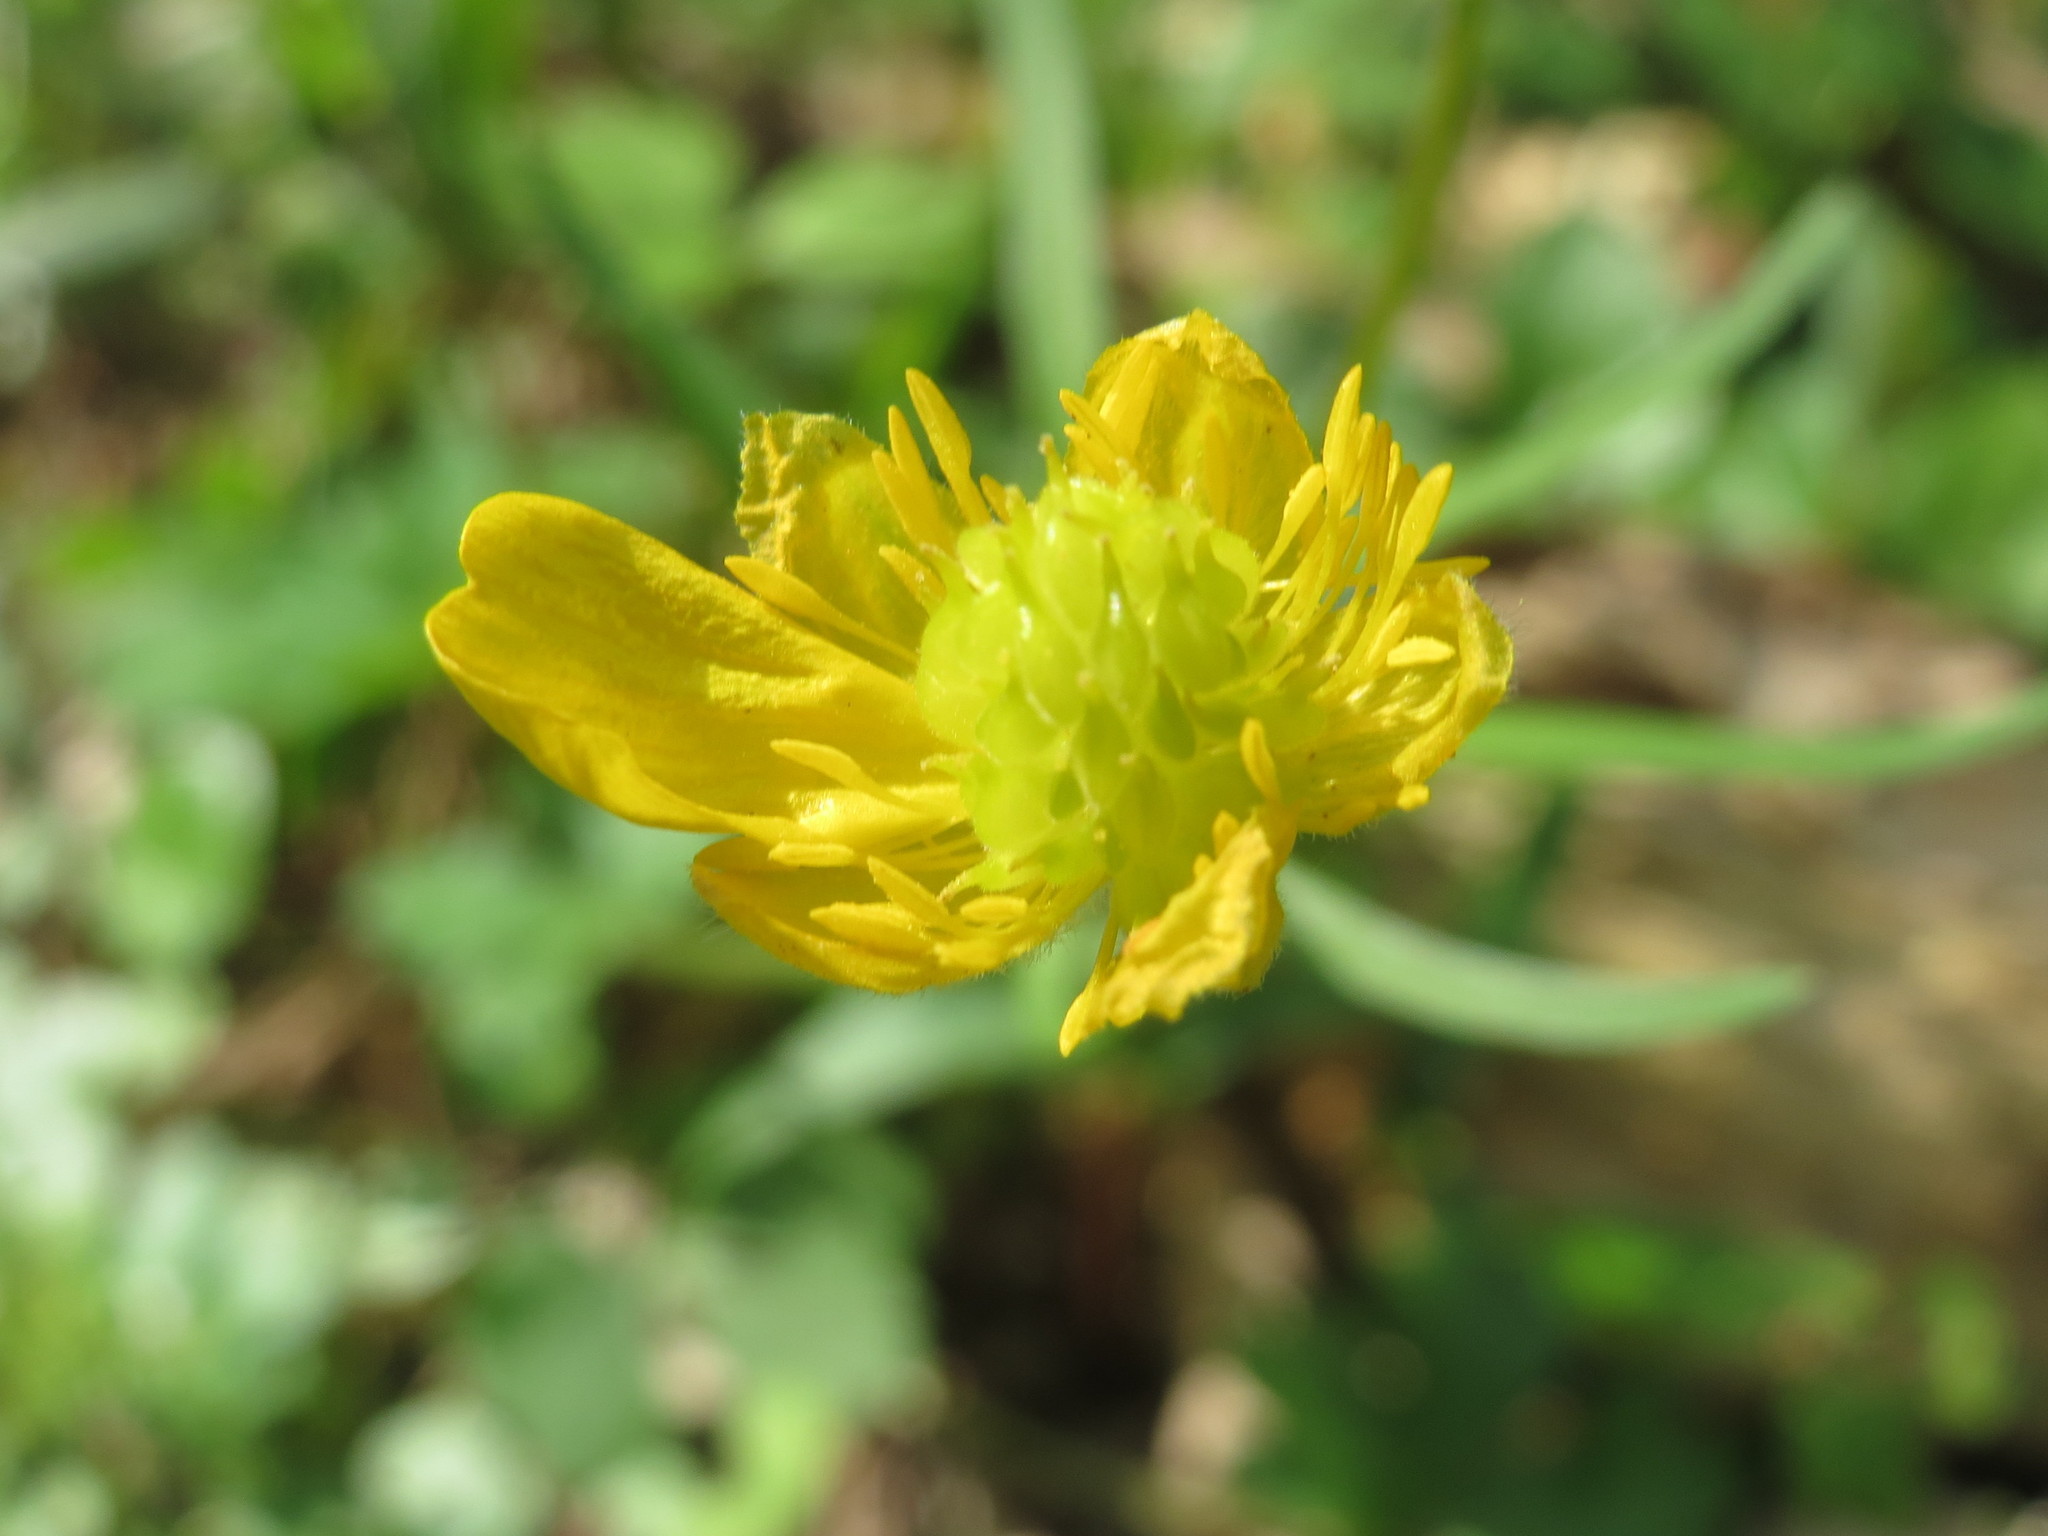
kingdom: Plantae
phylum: Tracheophyta
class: Magnoliopsida
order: Ranunculales
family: Ranunculaceae
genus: Ranunculus
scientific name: Ranunculus auricomus
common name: Goldilocks buttercup
